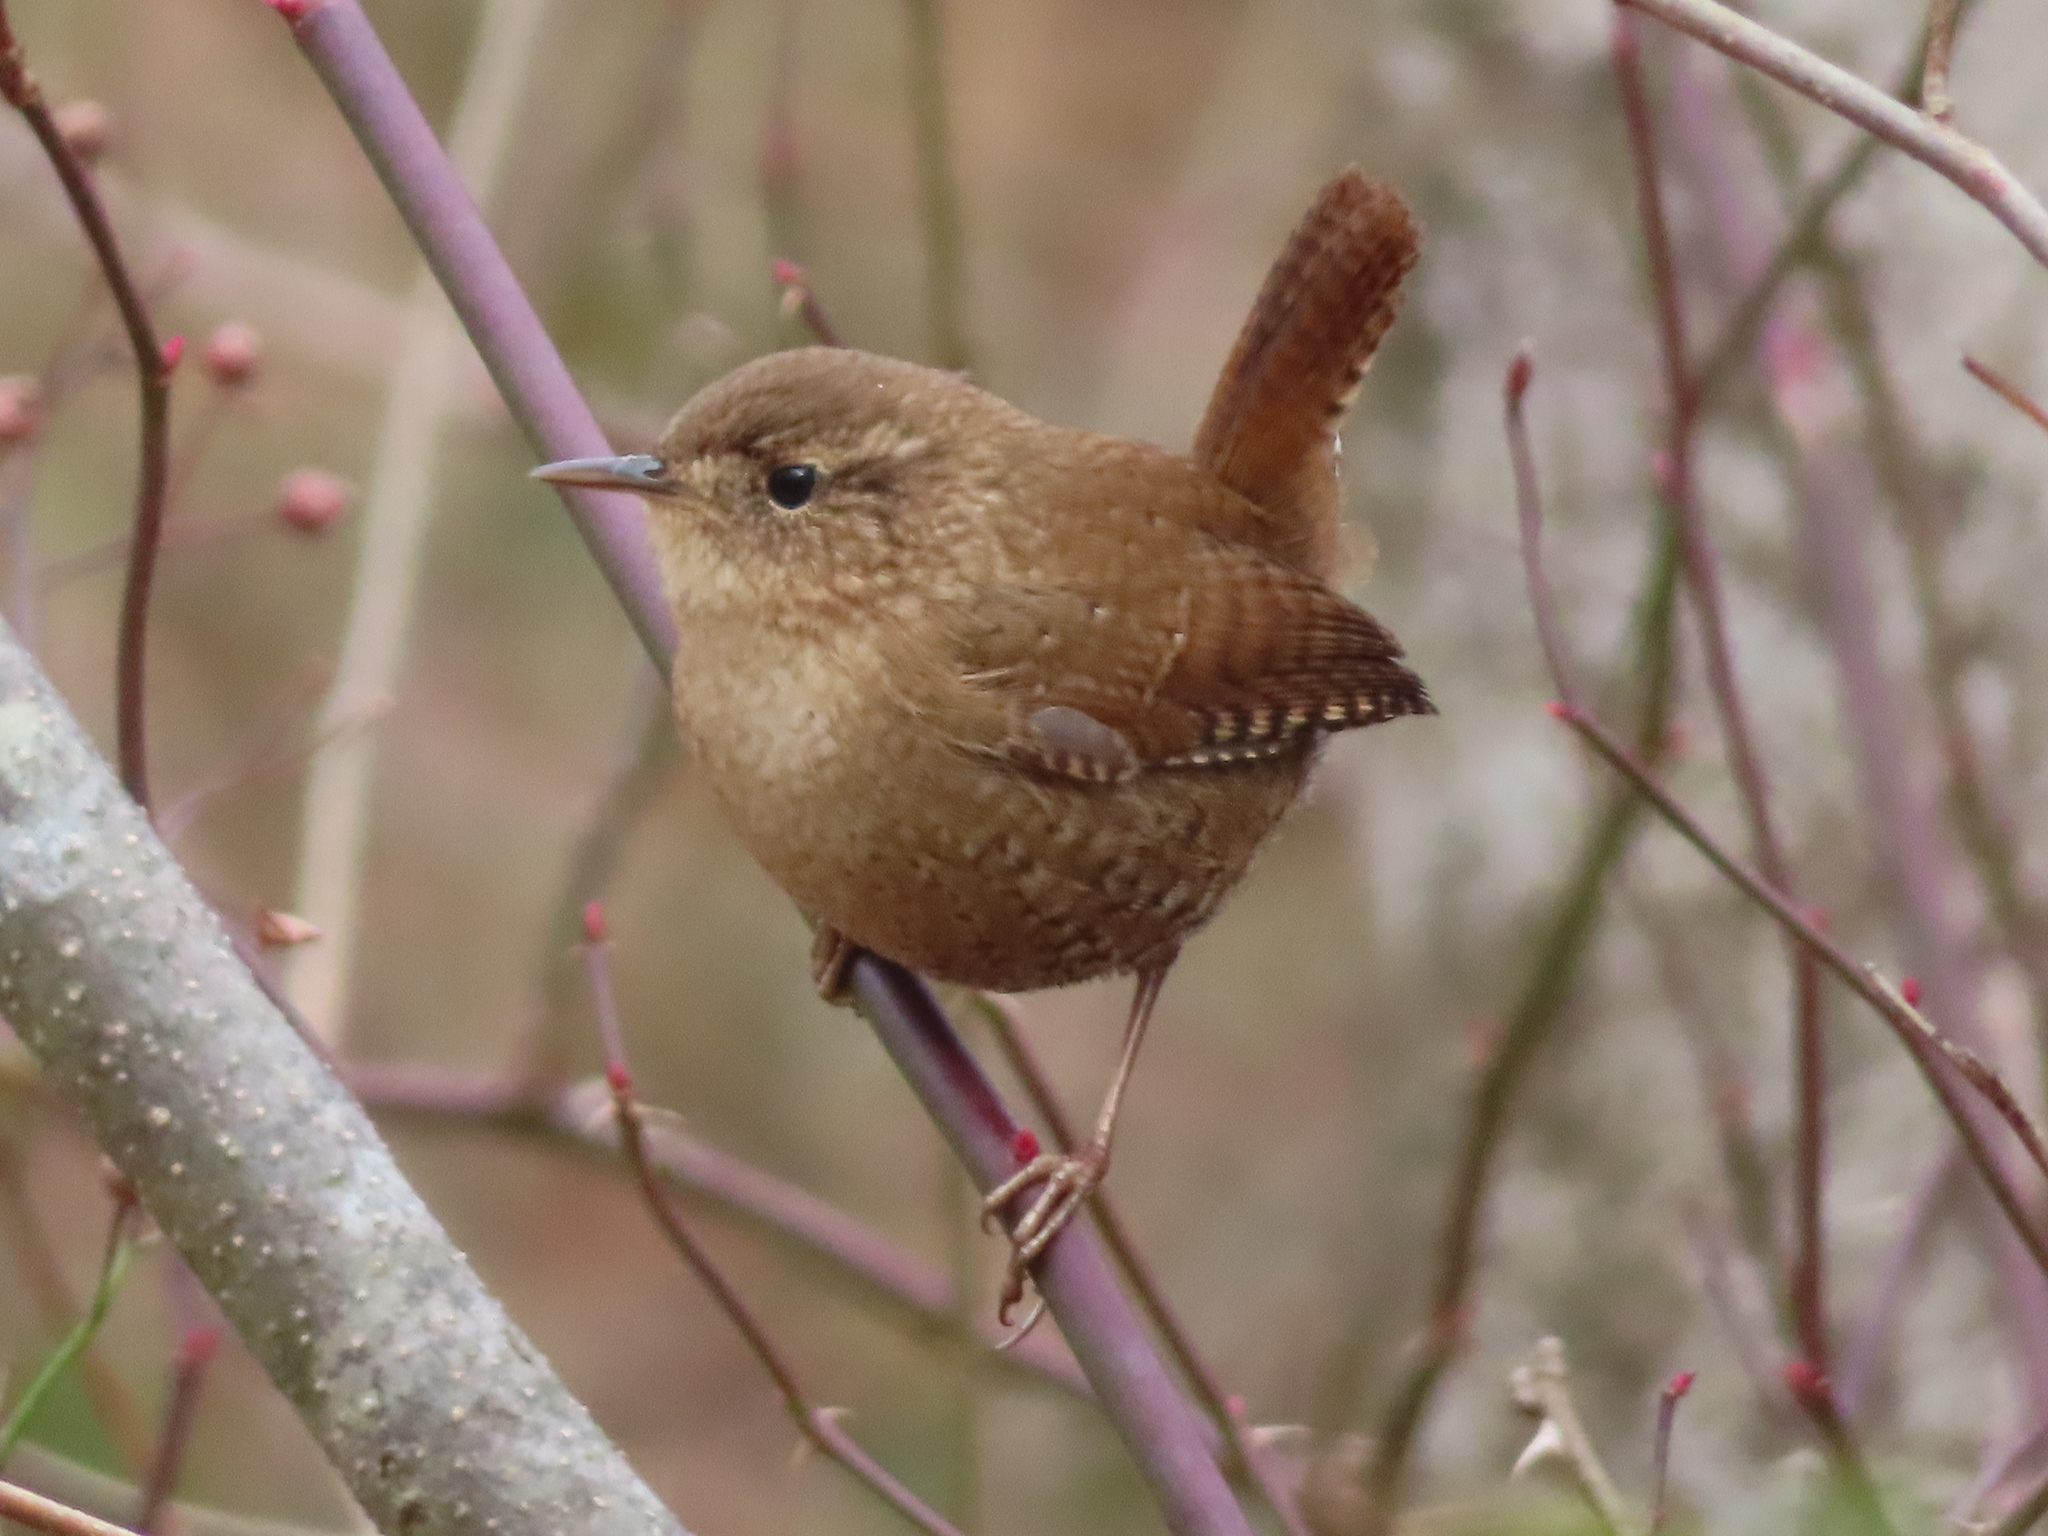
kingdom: Animalia
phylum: Chordata
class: Aves
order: Passeriformes
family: Troglodytidae
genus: Troglodytes
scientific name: Troglodytes hiemalis
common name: Winter wren
